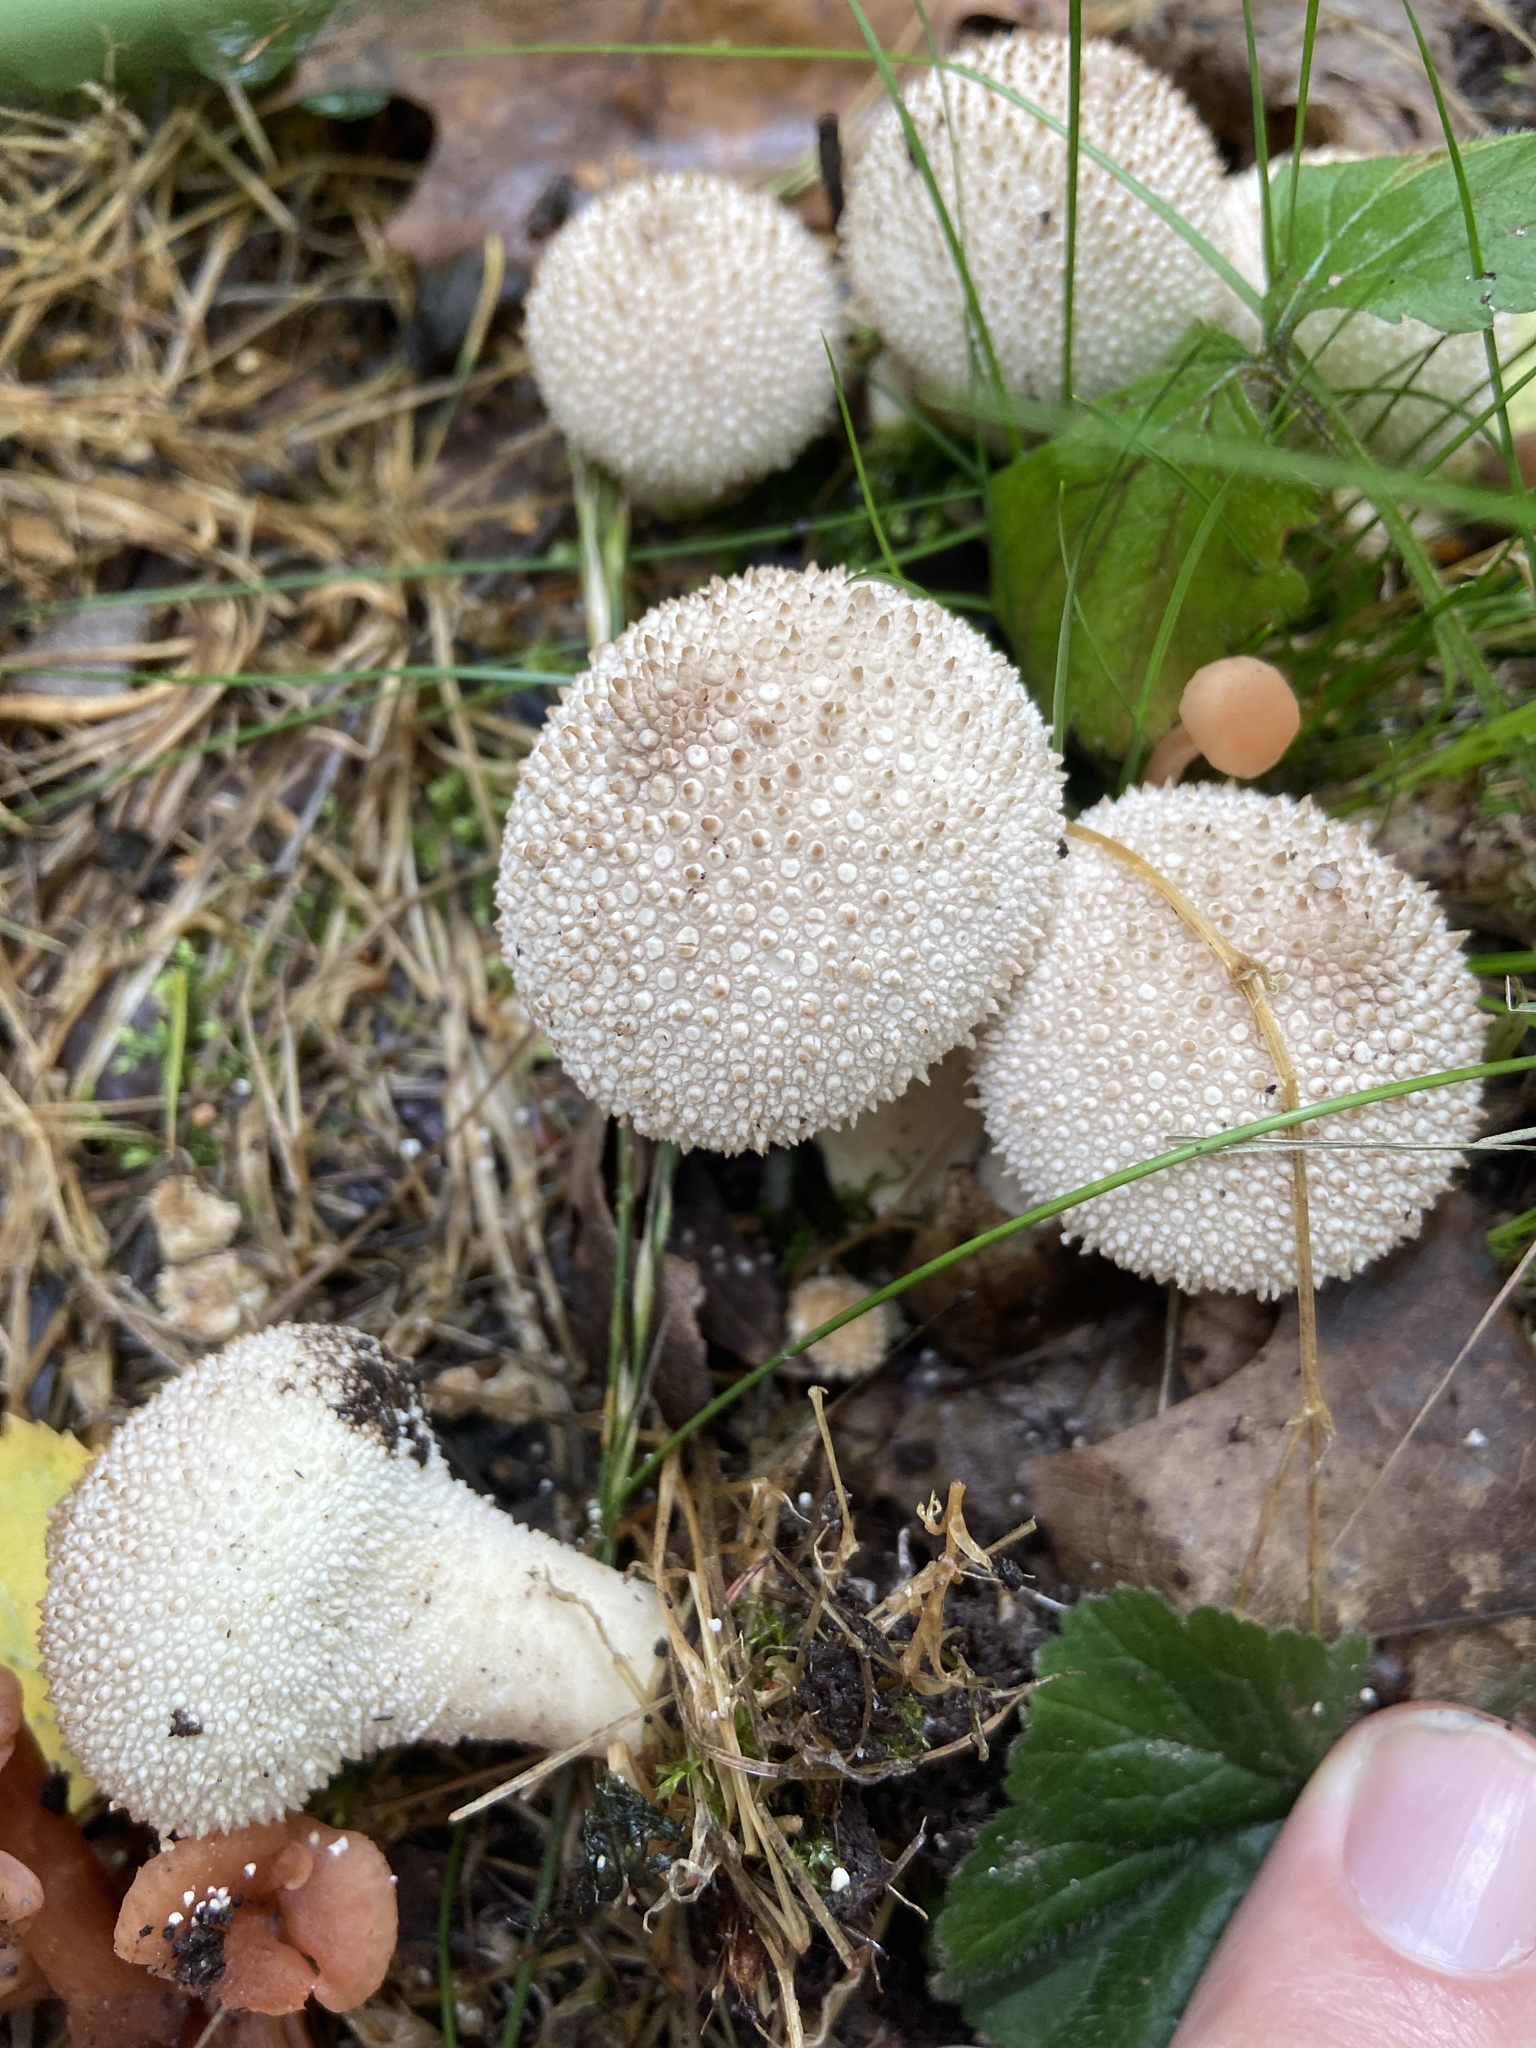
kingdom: Fungi
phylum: Basidiomycota
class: Agaricomycetes
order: Agaricales
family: Lycoperdaceae
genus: Lycoperdon
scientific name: Lycoperdon perlatum
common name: Common puffball
